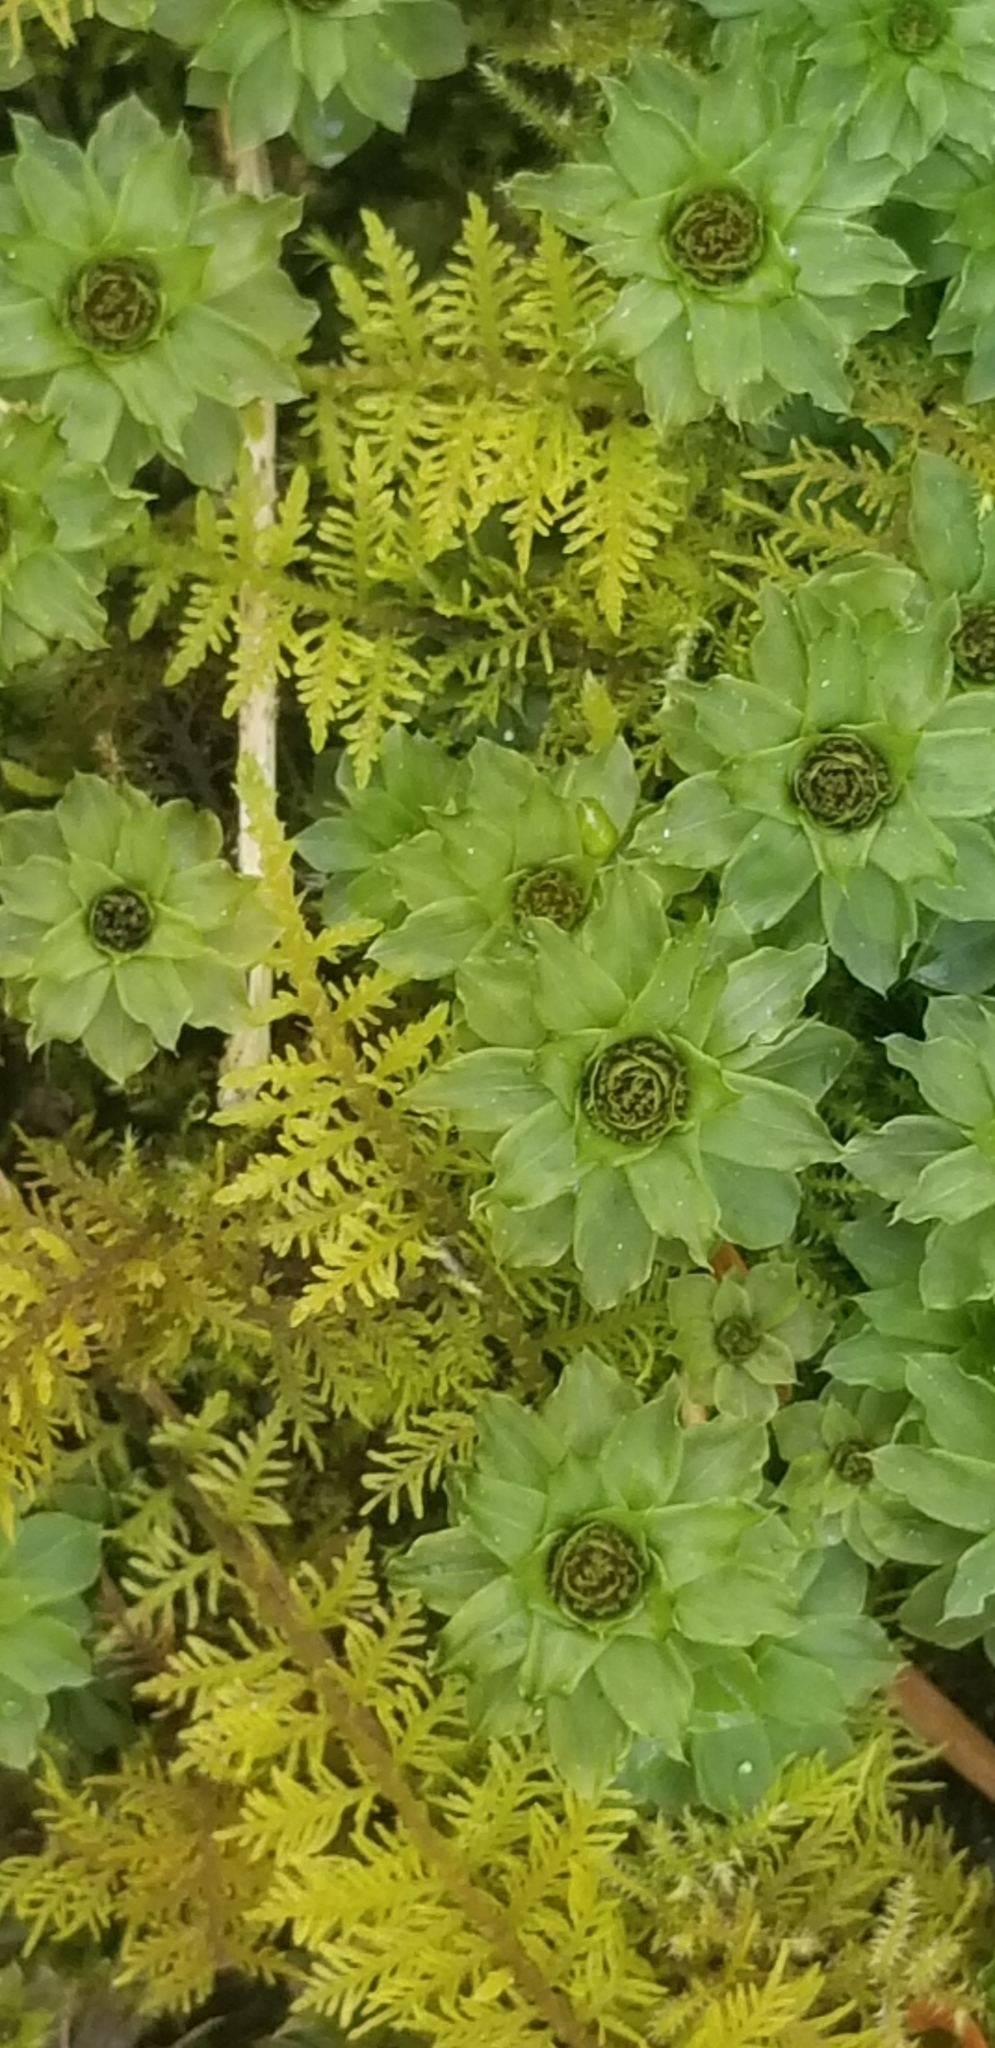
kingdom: Plantae
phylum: Bryophyta
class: Bryopsida
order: Bryales
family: Bryaceae
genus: Rhodobryum
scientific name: Rhodobryum ontariense
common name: Ontario rhodobryum moss
